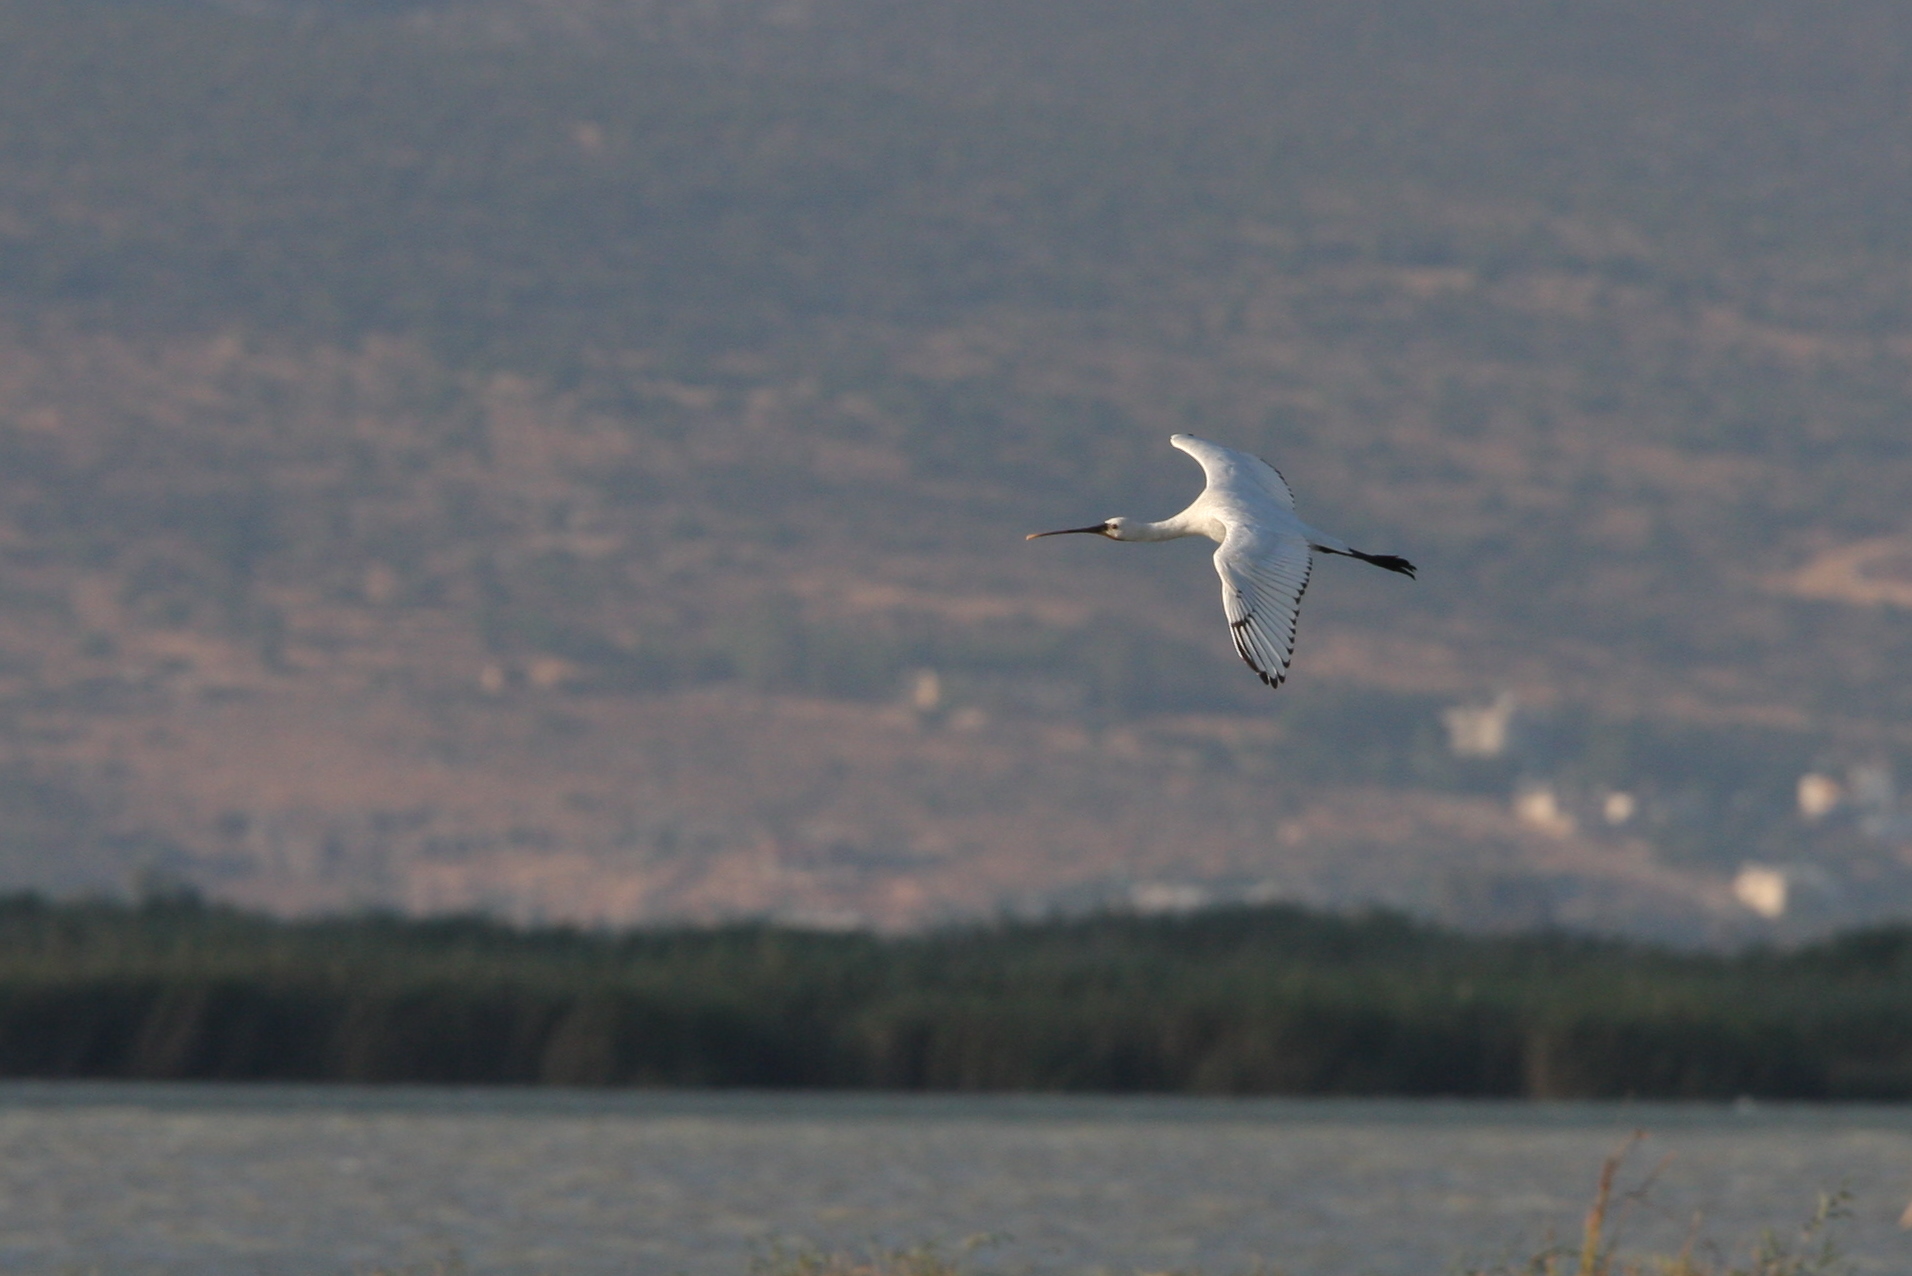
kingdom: Animalia
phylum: Chordata
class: Aves
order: Pelecaniformes
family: Threskiornithidae
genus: Platalea
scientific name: Platalea leucorodia
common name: Eurasian spoonbill
